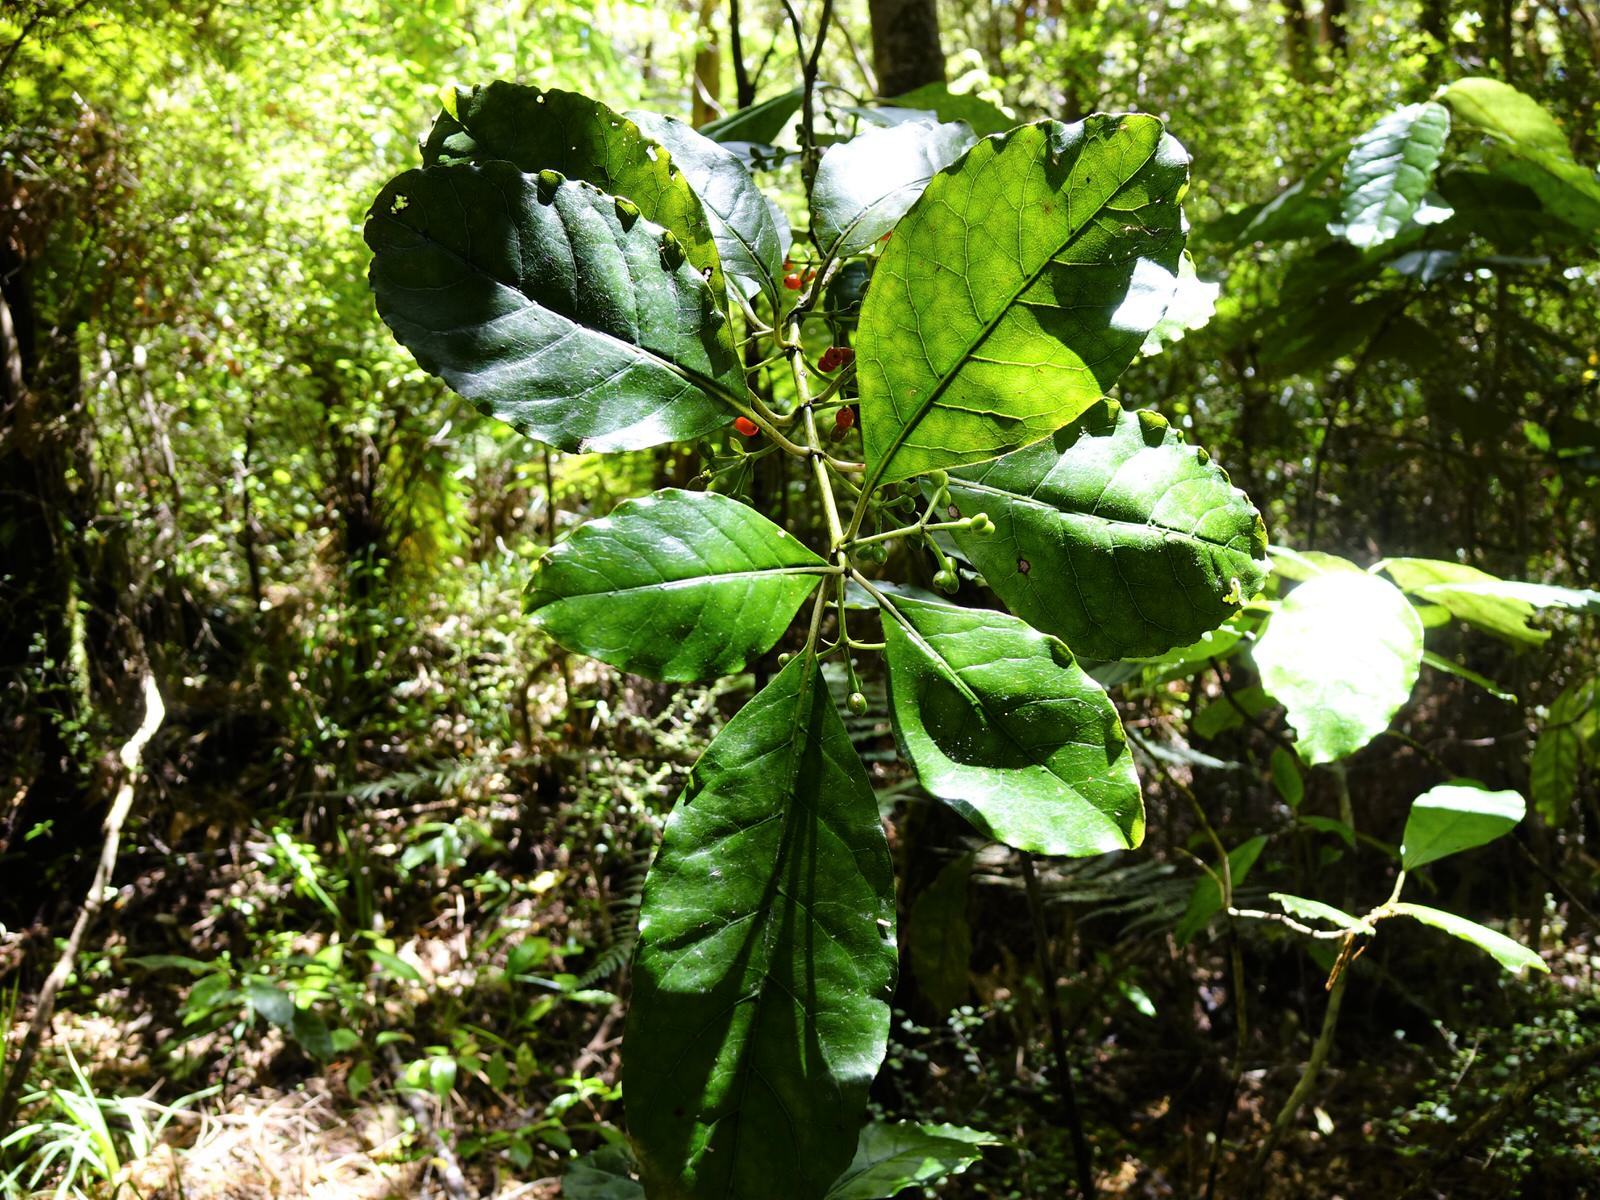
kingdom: Plantae
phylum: Tracheophyta
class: Magnoliopsida
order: Gentianales
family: Rubiaceae
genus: Coprosma
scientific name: Coprosma autumnalis
